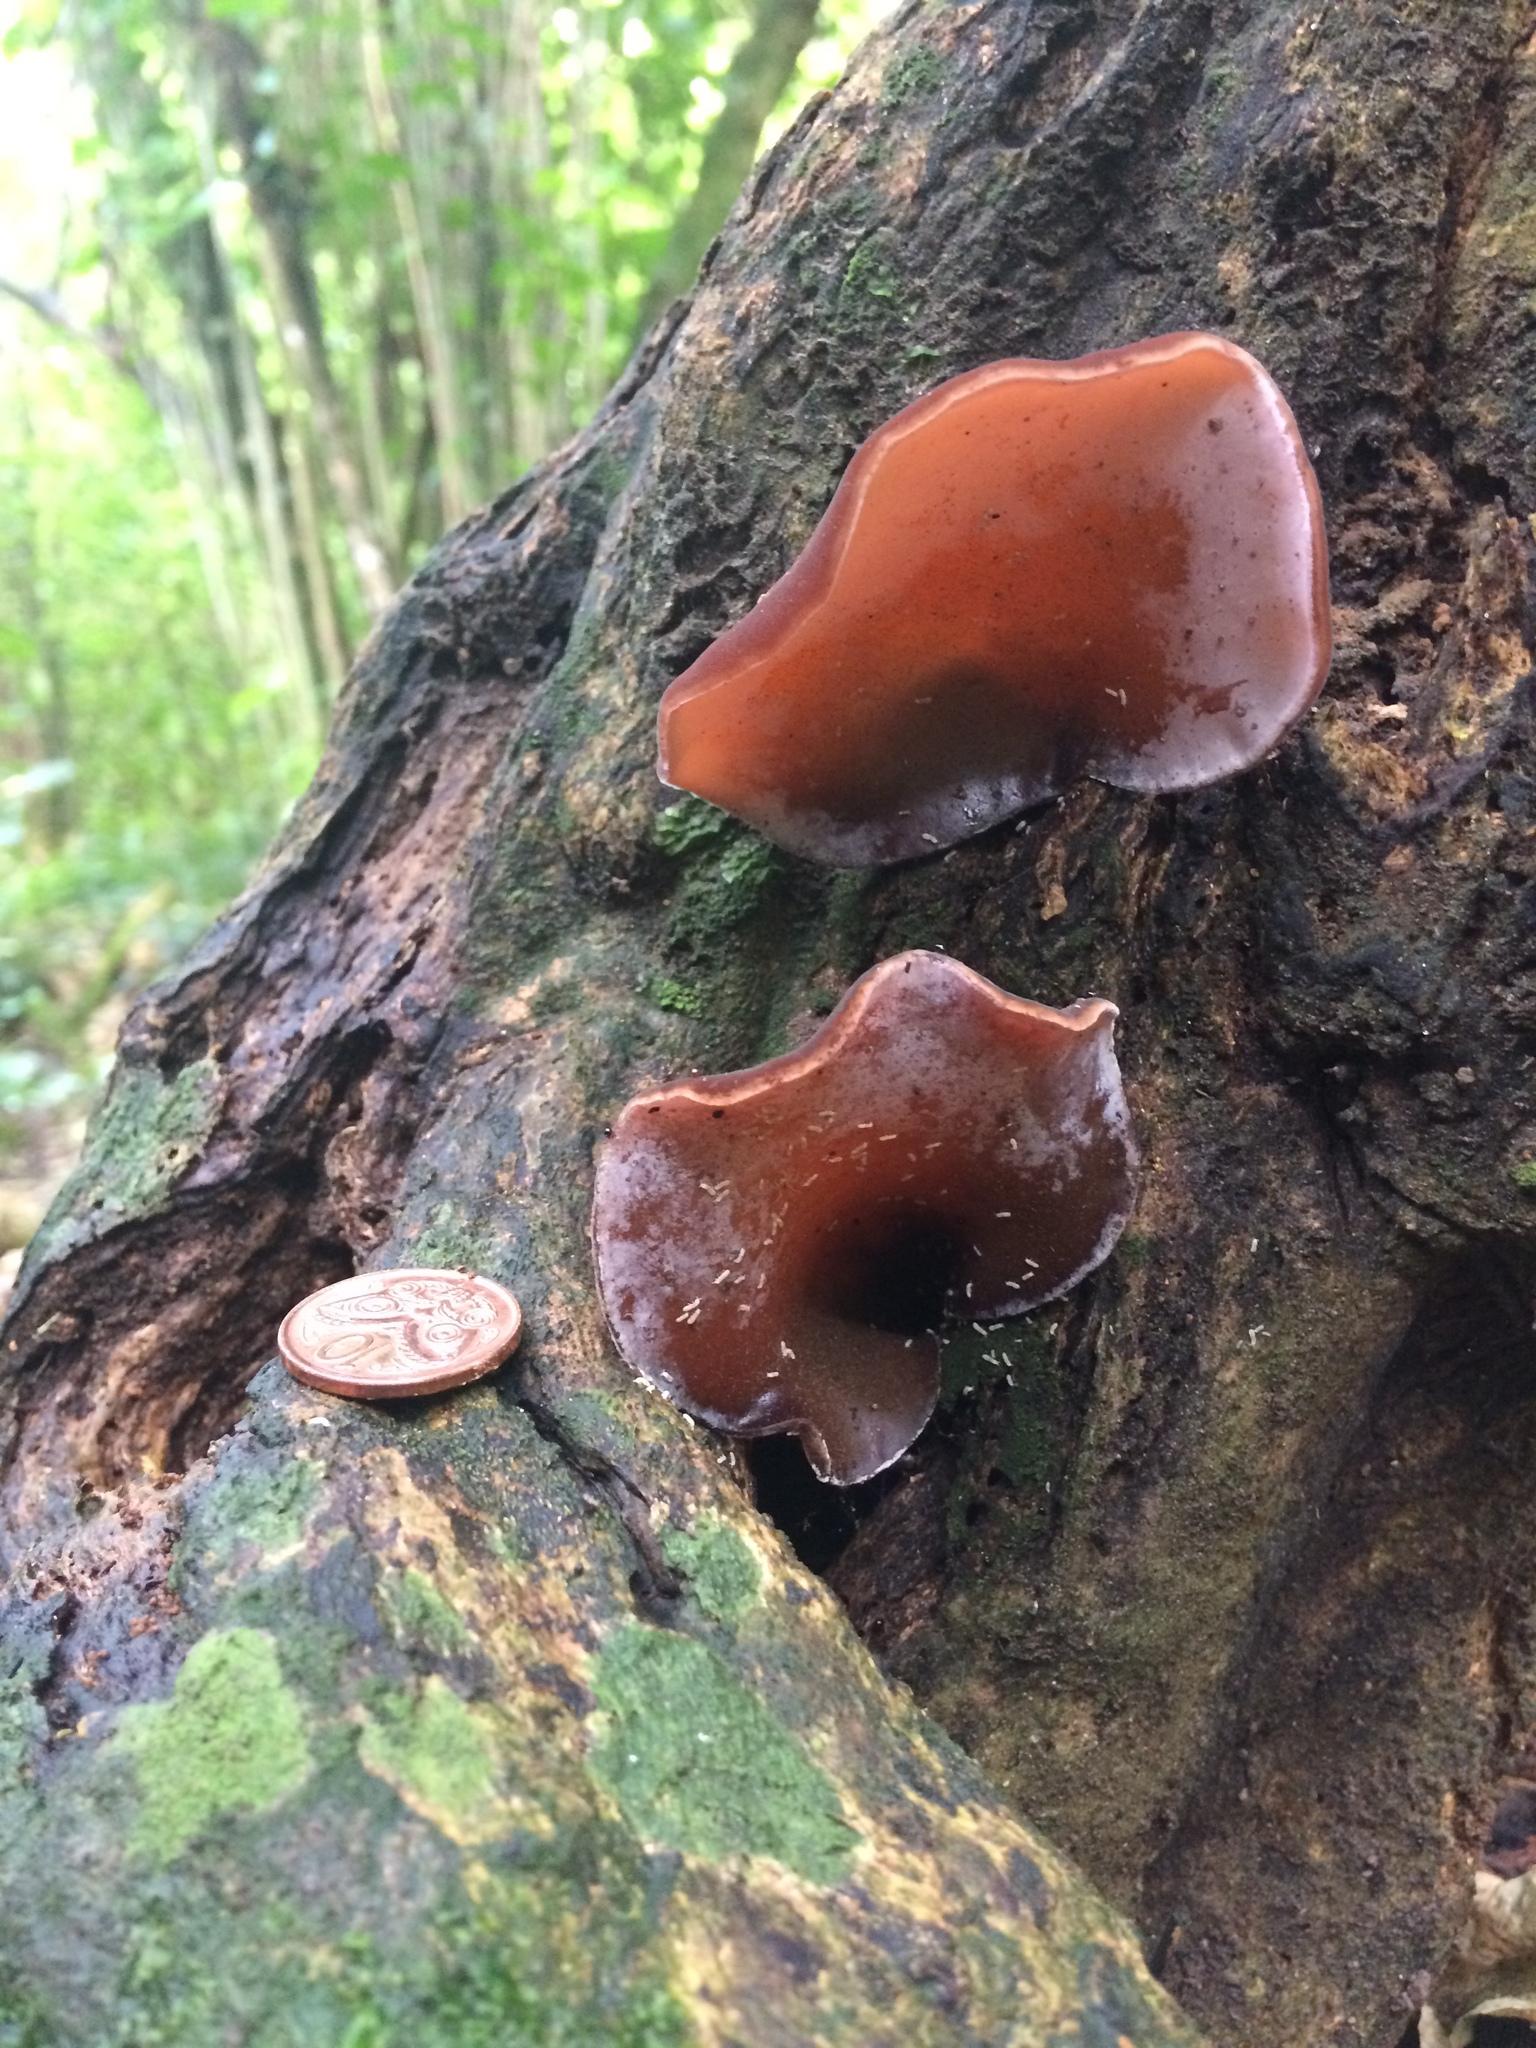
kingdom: Fungi
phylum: Basidiomycota
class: Agaricomycetes
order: Auriculariales
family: Auriculariaceae
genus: Auricularia
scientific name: Auricularia cornea
